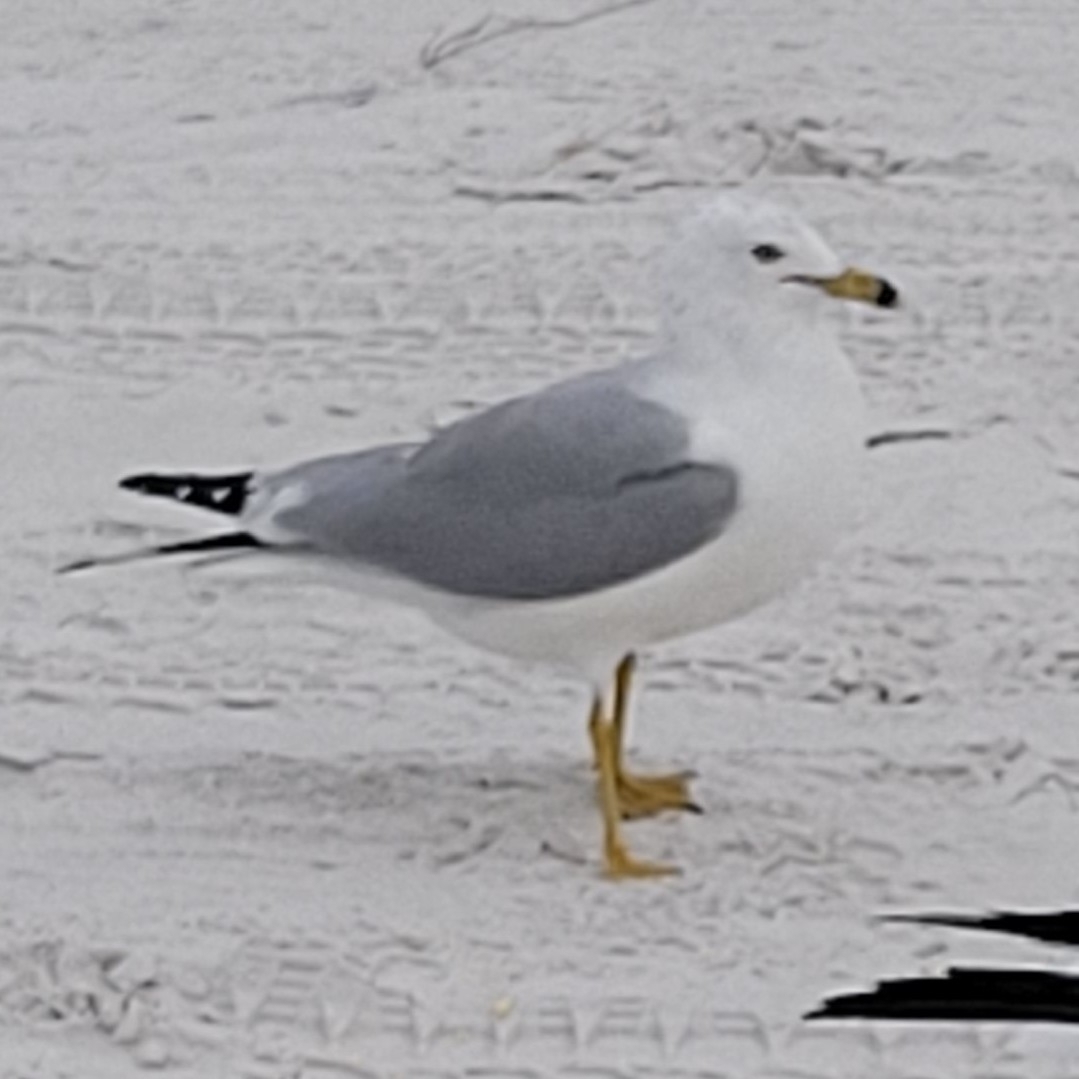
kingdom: Animalia
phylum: Chordata
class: Aves
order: Charadriiformes
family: Laridae
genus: Larus
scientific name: Larus delawarensis
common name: Ring-billed gull
